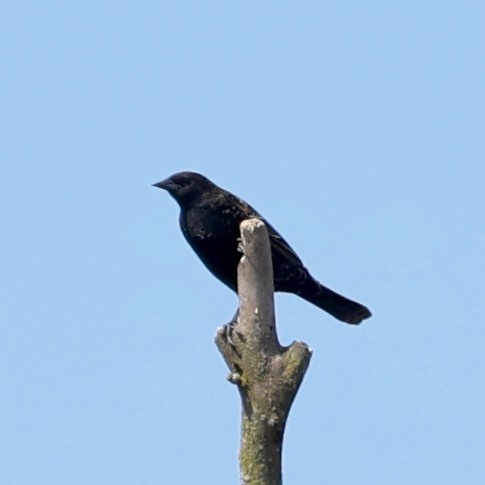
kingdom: Animalia
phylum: Chordata
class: Aves
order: Passeriformes
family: Icteridae
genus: Agelaius
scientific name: Agelaius phoeniceus
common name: Red-winged blackbird
